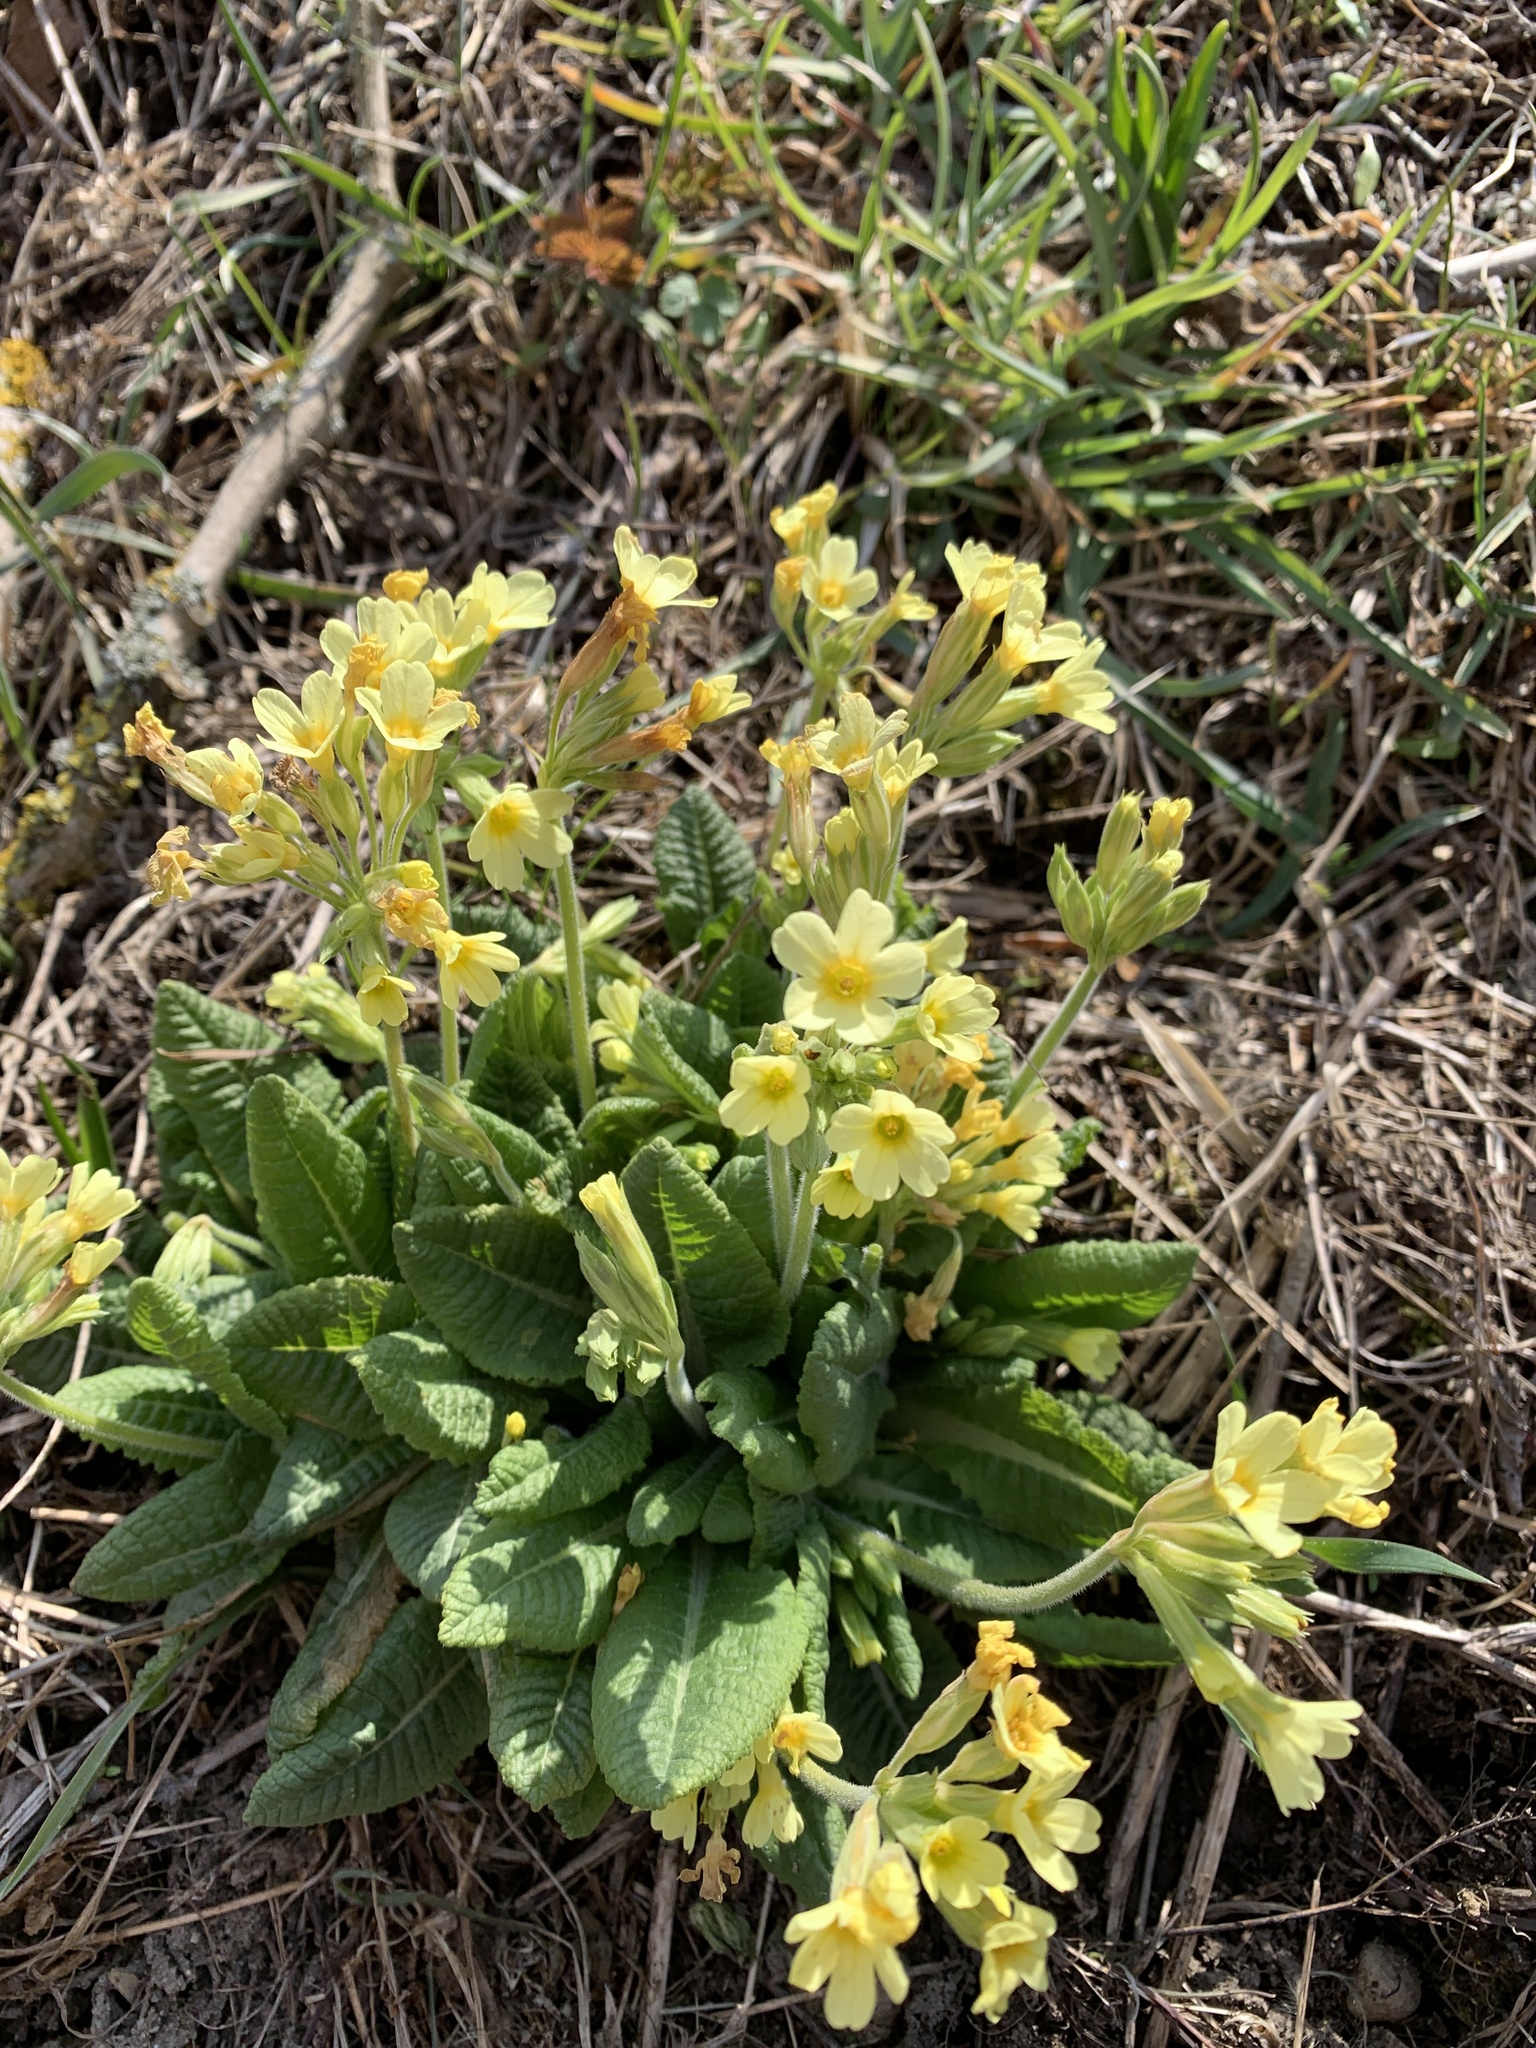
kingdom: Plantae
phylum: Tracheophyta
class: Magnoliopsida
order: Ericales
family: Primulaceae
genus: Primula
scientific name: Primula elatior
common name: Oxlip
